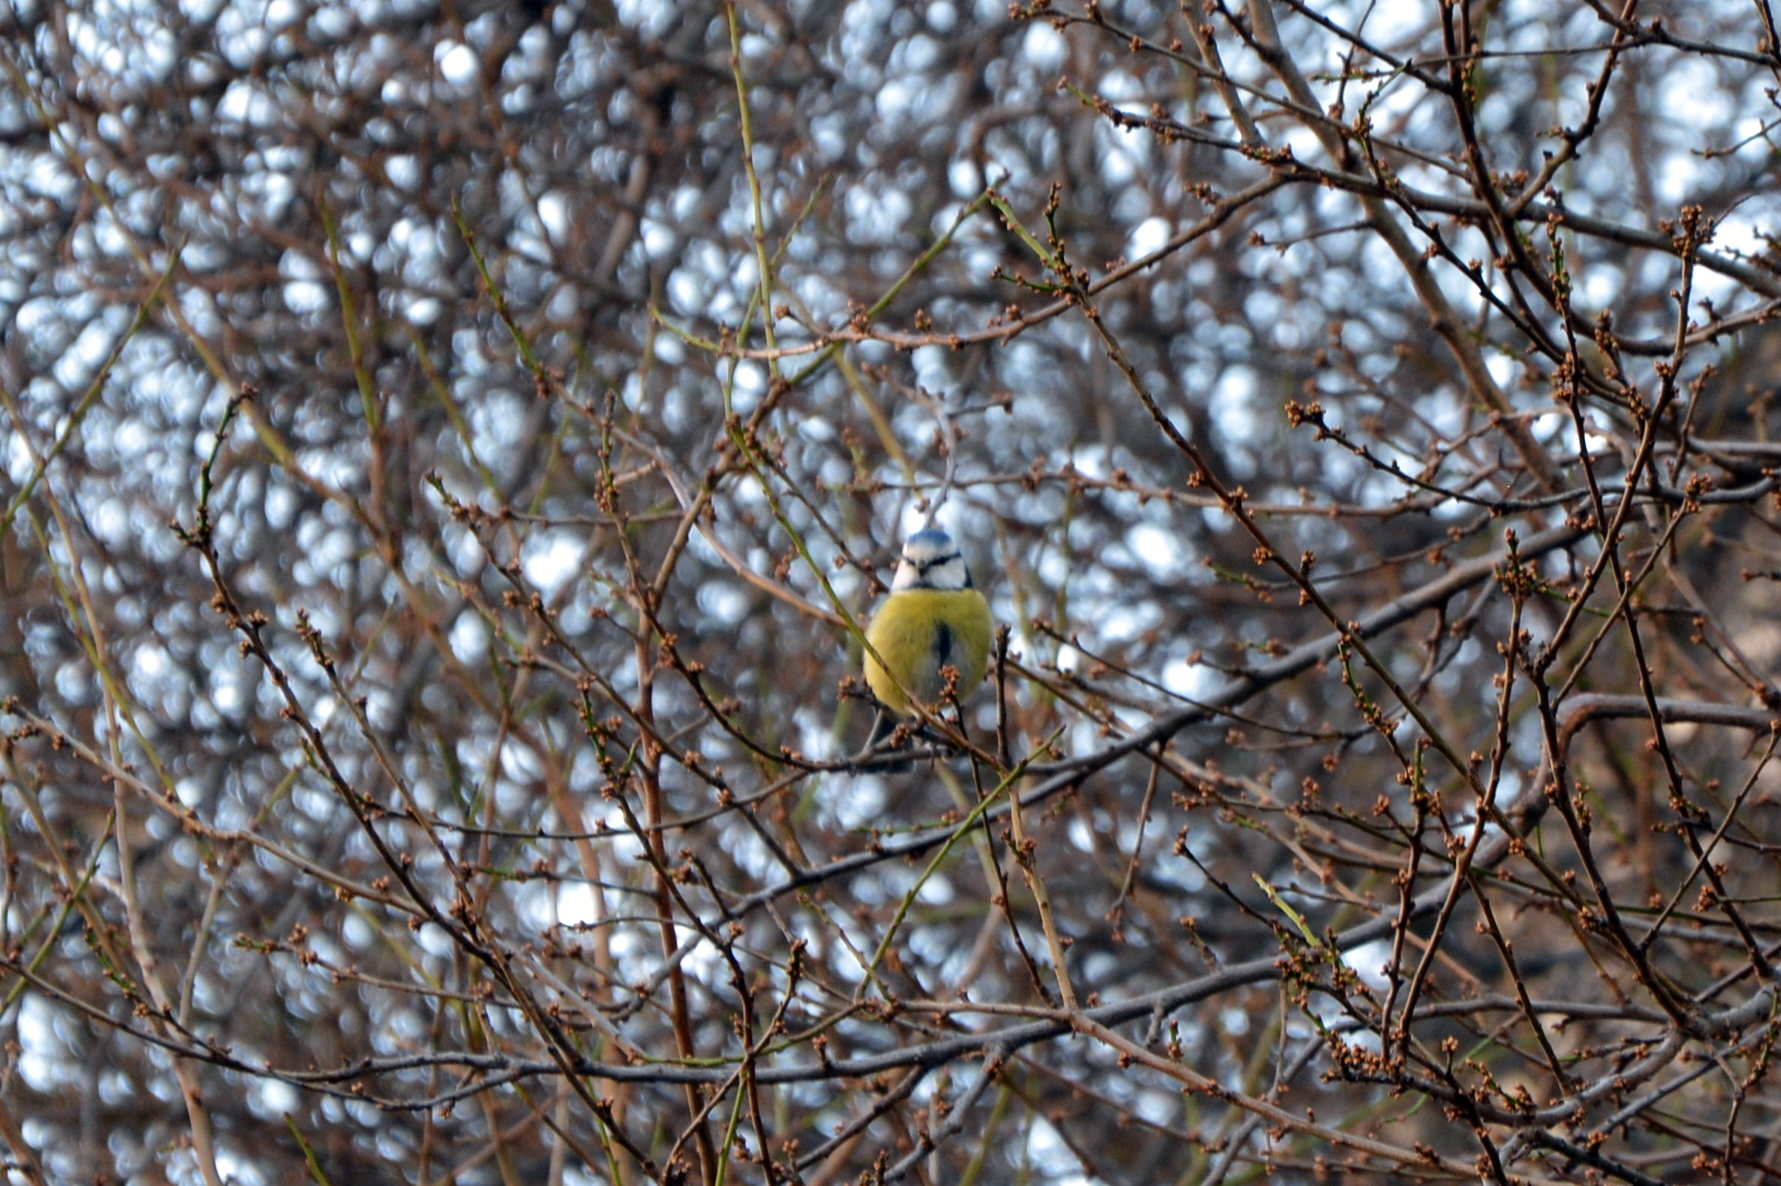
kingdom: Animalia
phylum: Chordata
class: Aves
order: Passeriformes
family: Paridae
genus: Cyanistes
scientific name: Cyanistes caeruleus
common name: Eurasian blue tit
